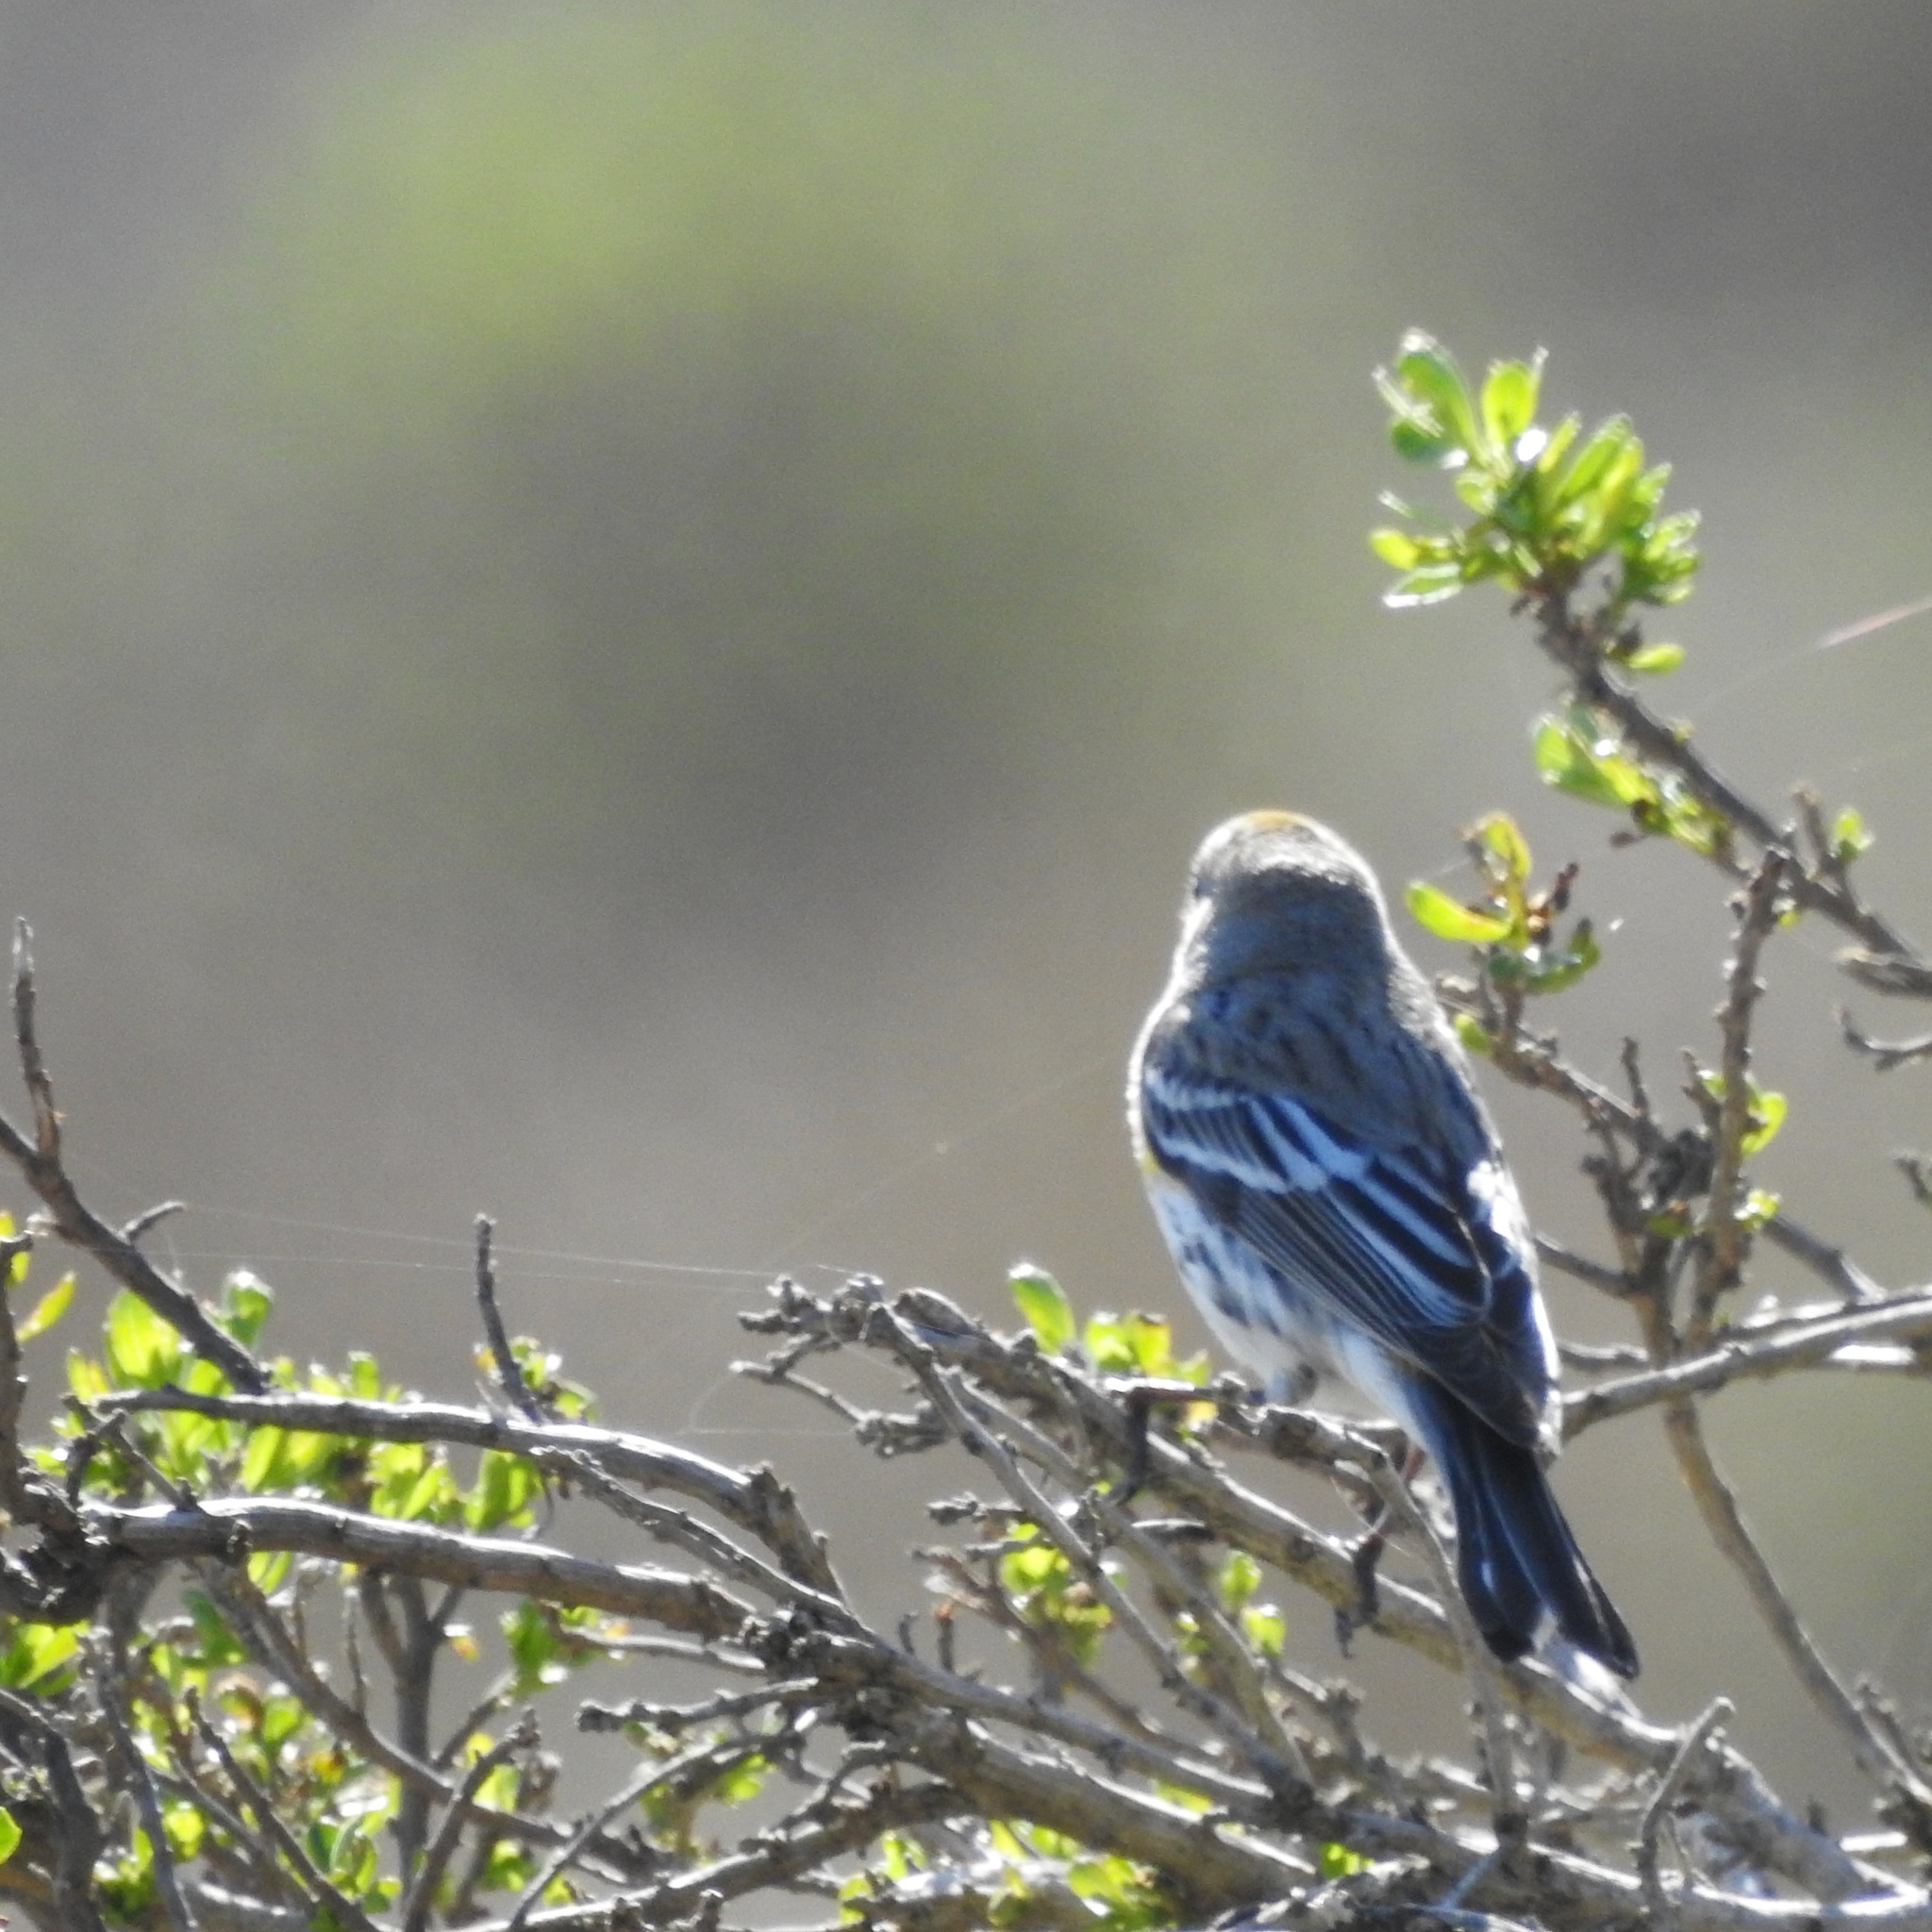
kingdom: Animalia
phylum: Chordata
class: Aves
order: Passeriformes
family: Parulidae
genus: Setophaga
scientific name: Setophaga coronata
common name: Myrtle warbler
